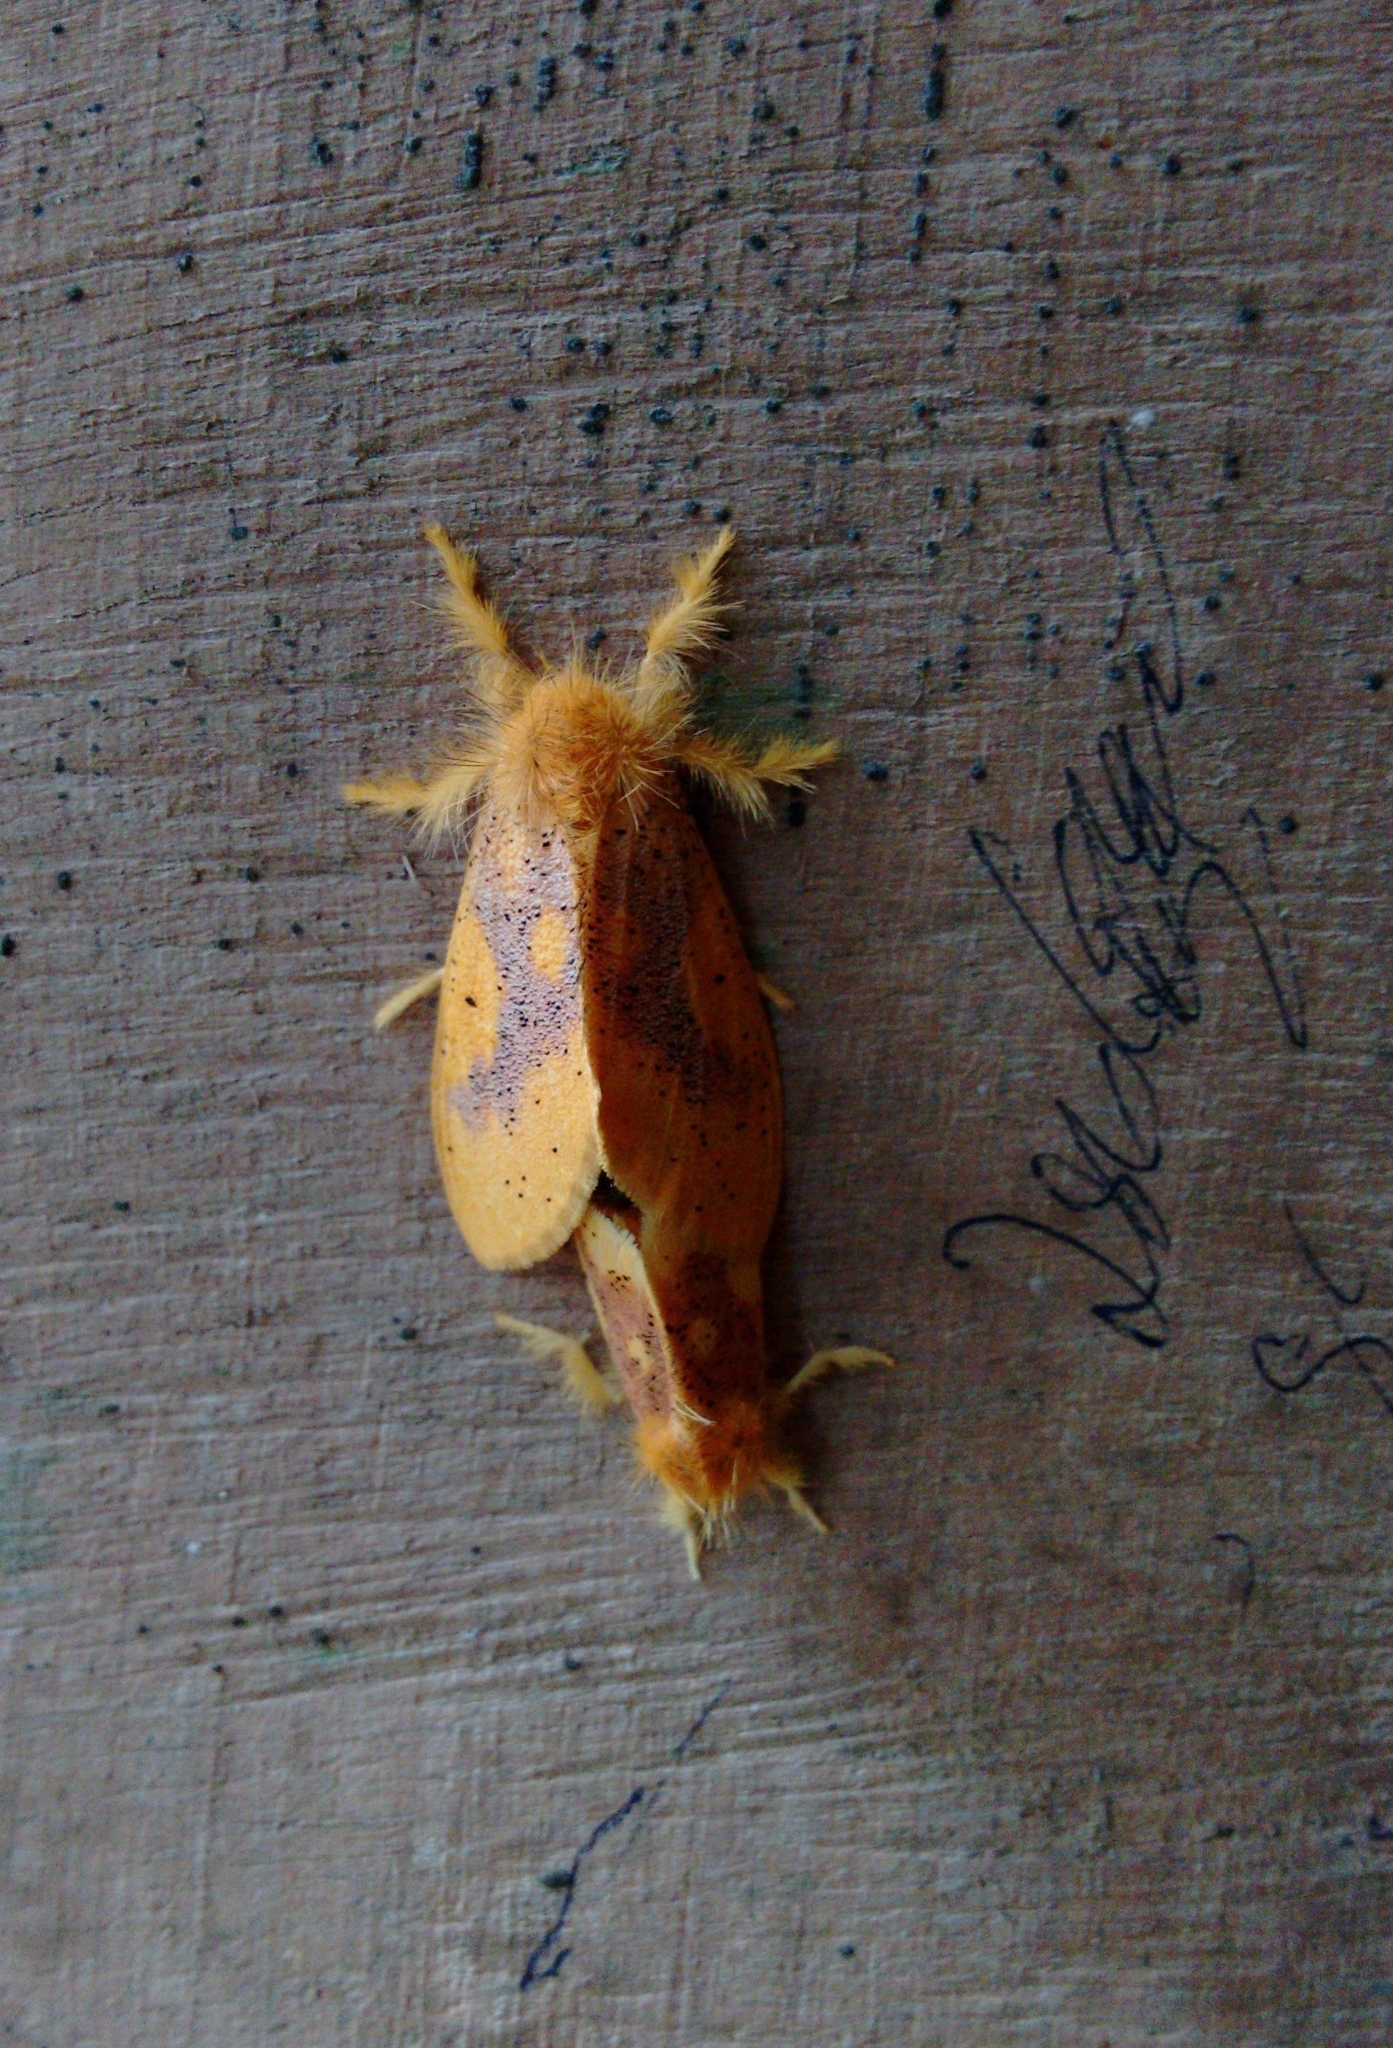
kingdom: Animalia
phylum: Arthropoda
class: Insecta
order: Lepidoptera
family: Erebidae
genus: Nygmia
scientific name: Nygmia icilia
